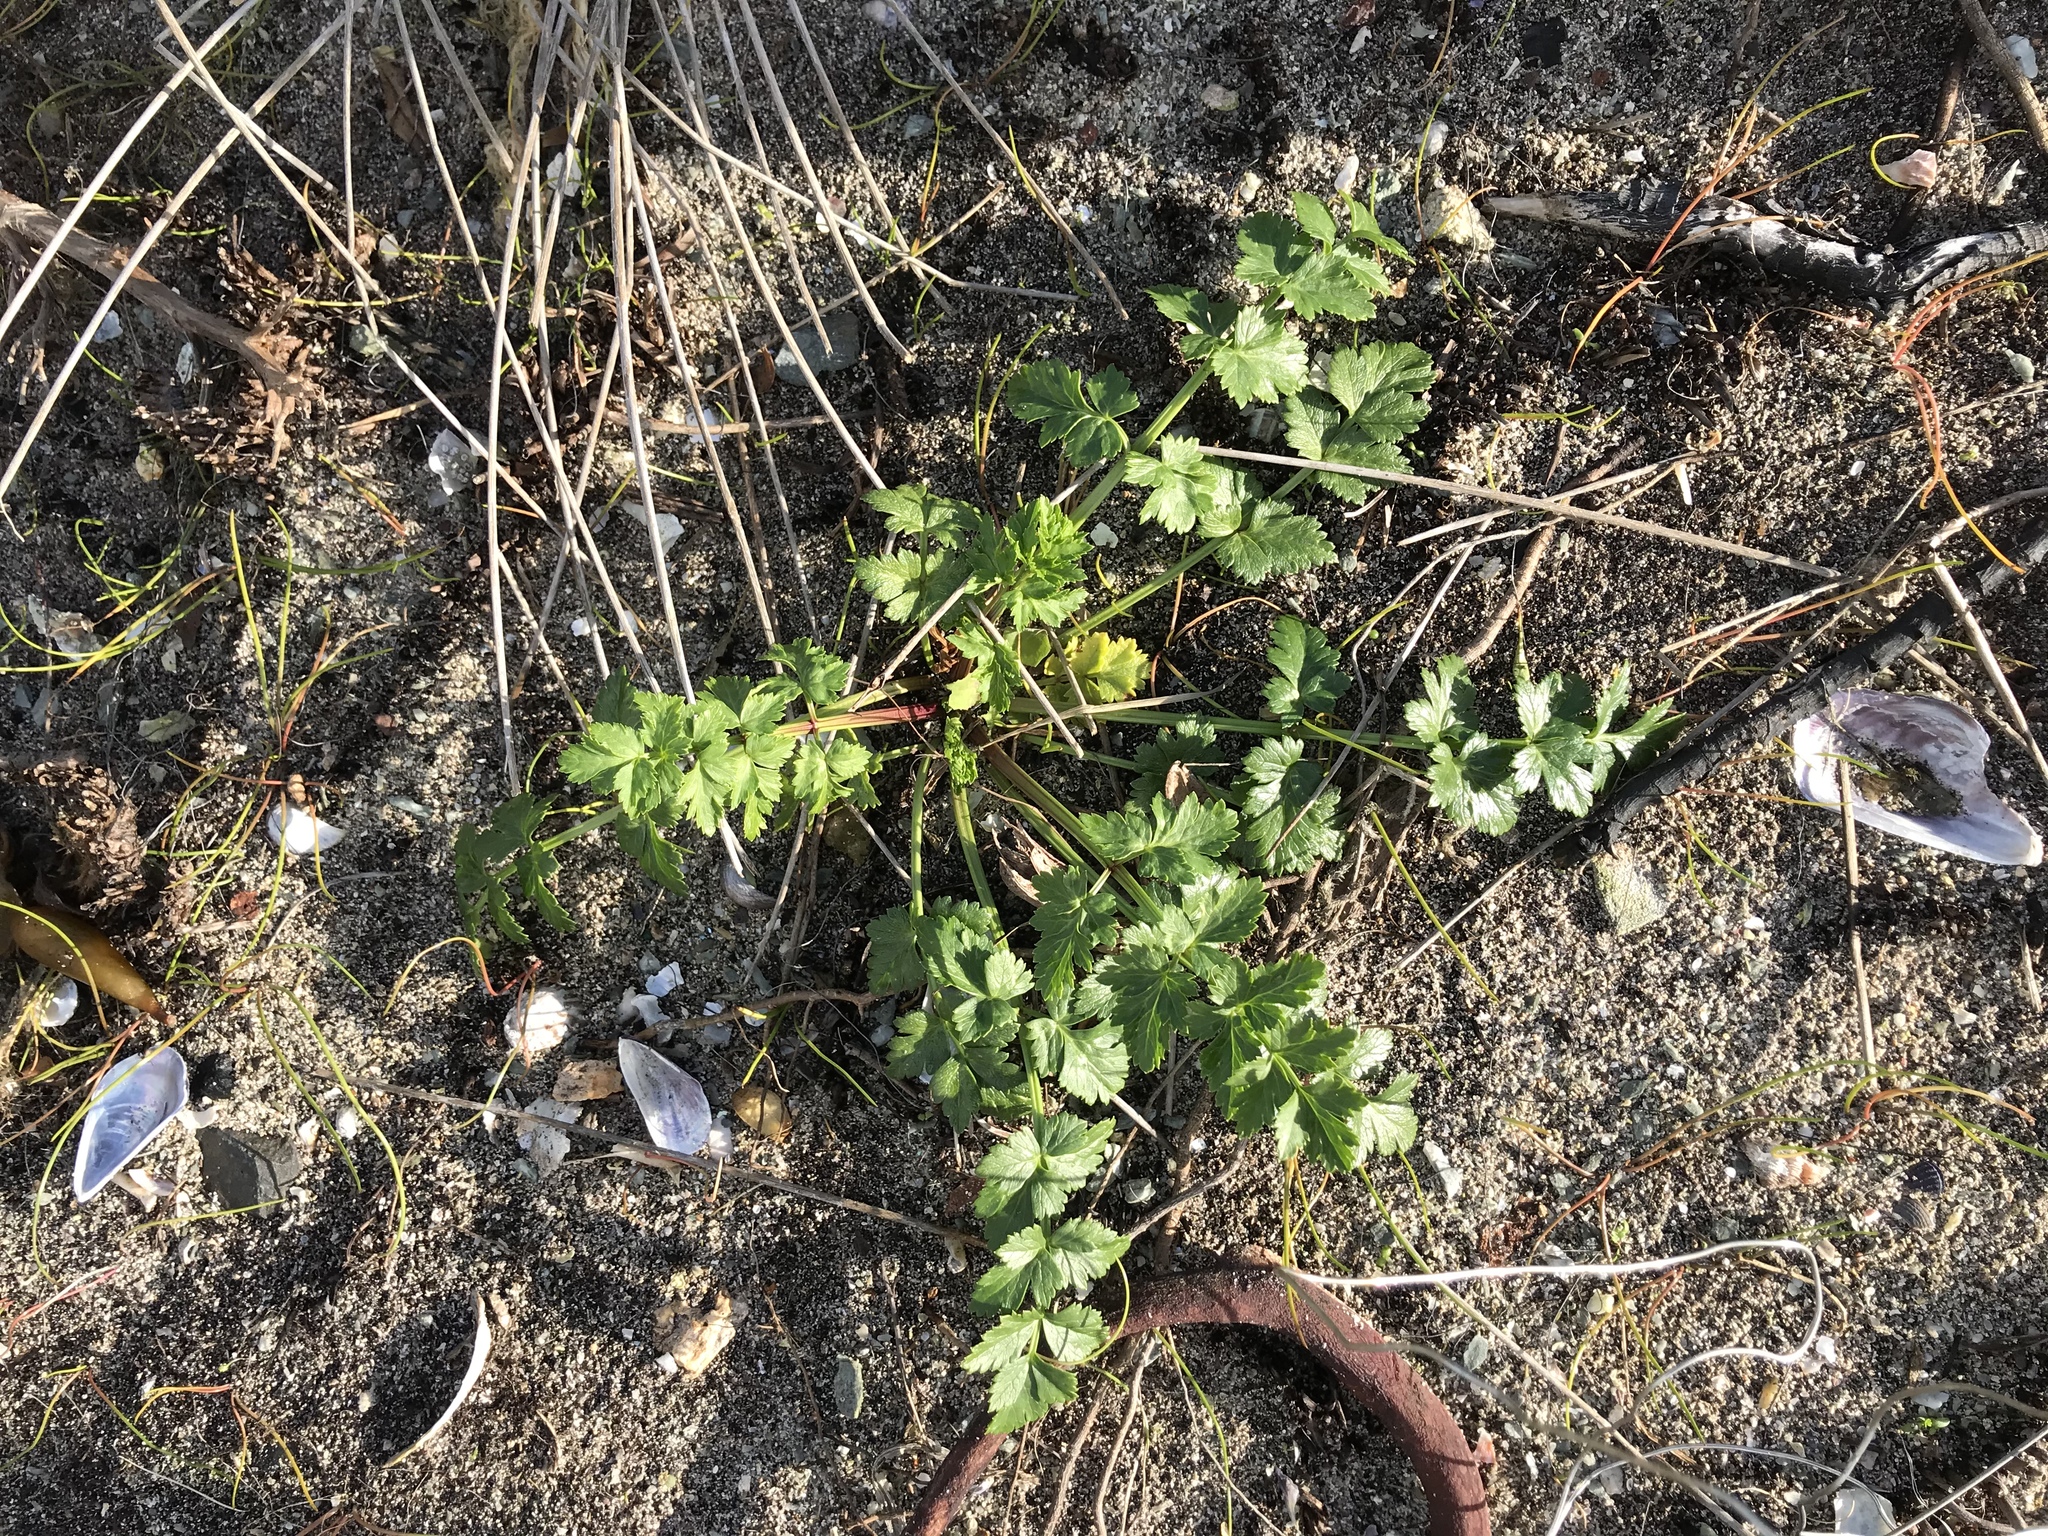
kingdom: Plantae
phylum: Tracheophyta
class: Magnoliopsida
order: Apiales
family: Apiaceae
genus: Apium
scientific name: Apium prostratum
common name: Prostrate marshwort
